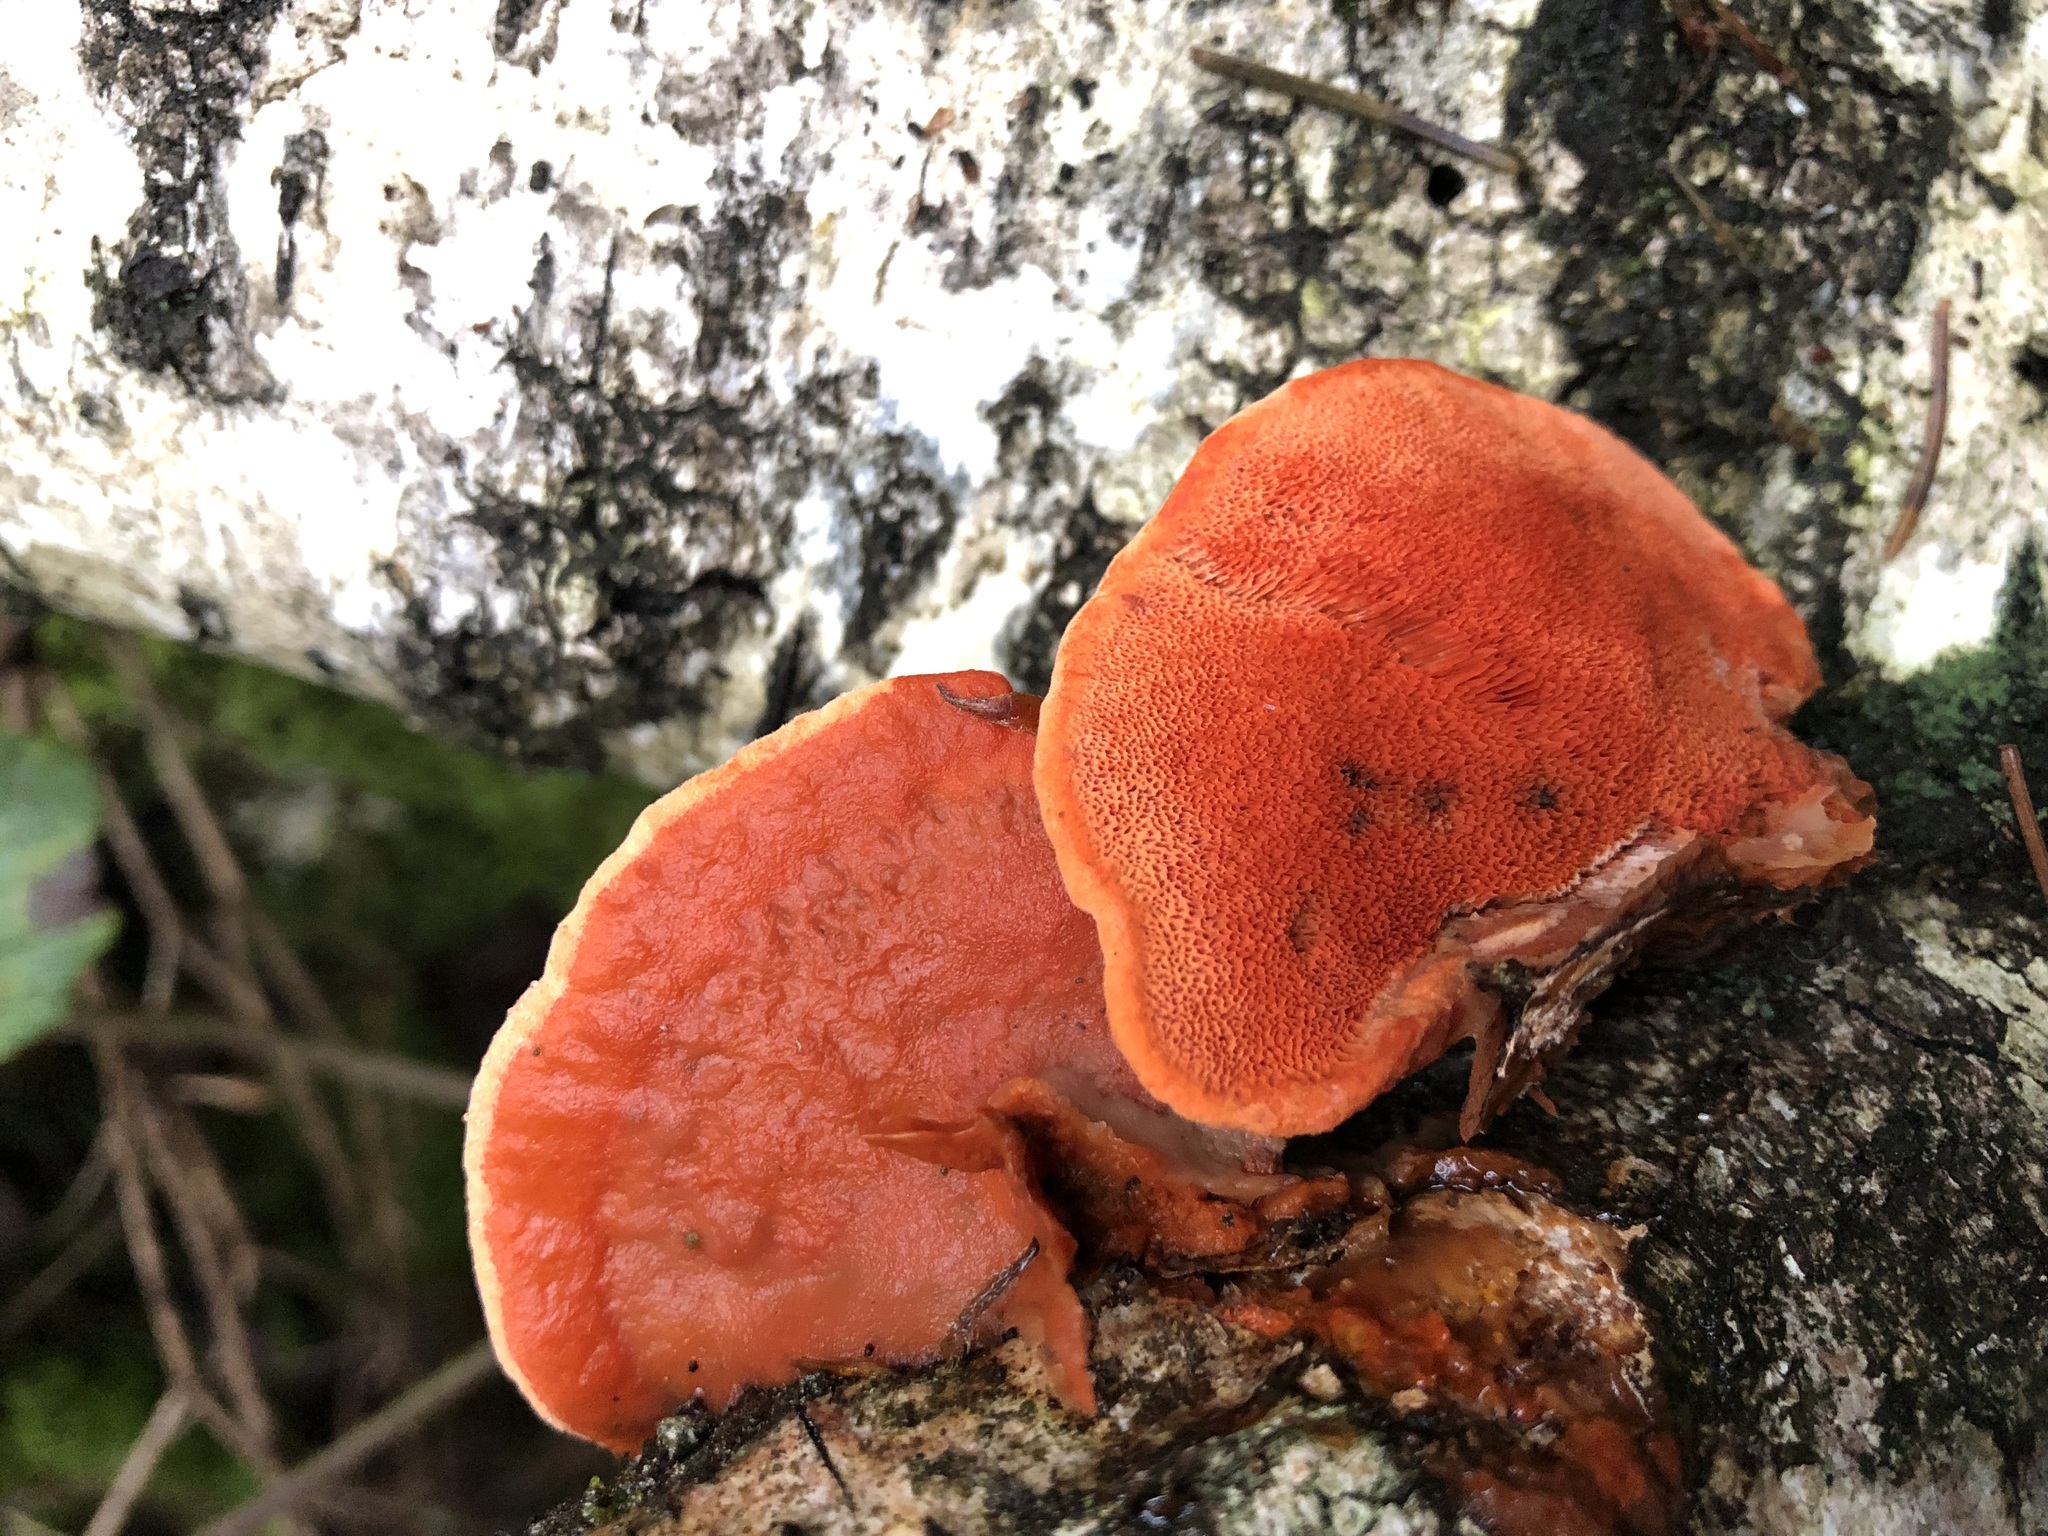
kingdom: Fungi
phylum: Basidiomycota
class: Agaricomycetes
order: Polyporales
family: Polyporaceae
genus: Trametes
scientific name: Trametes cinnabarina
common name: Northern cinnabar polypore
